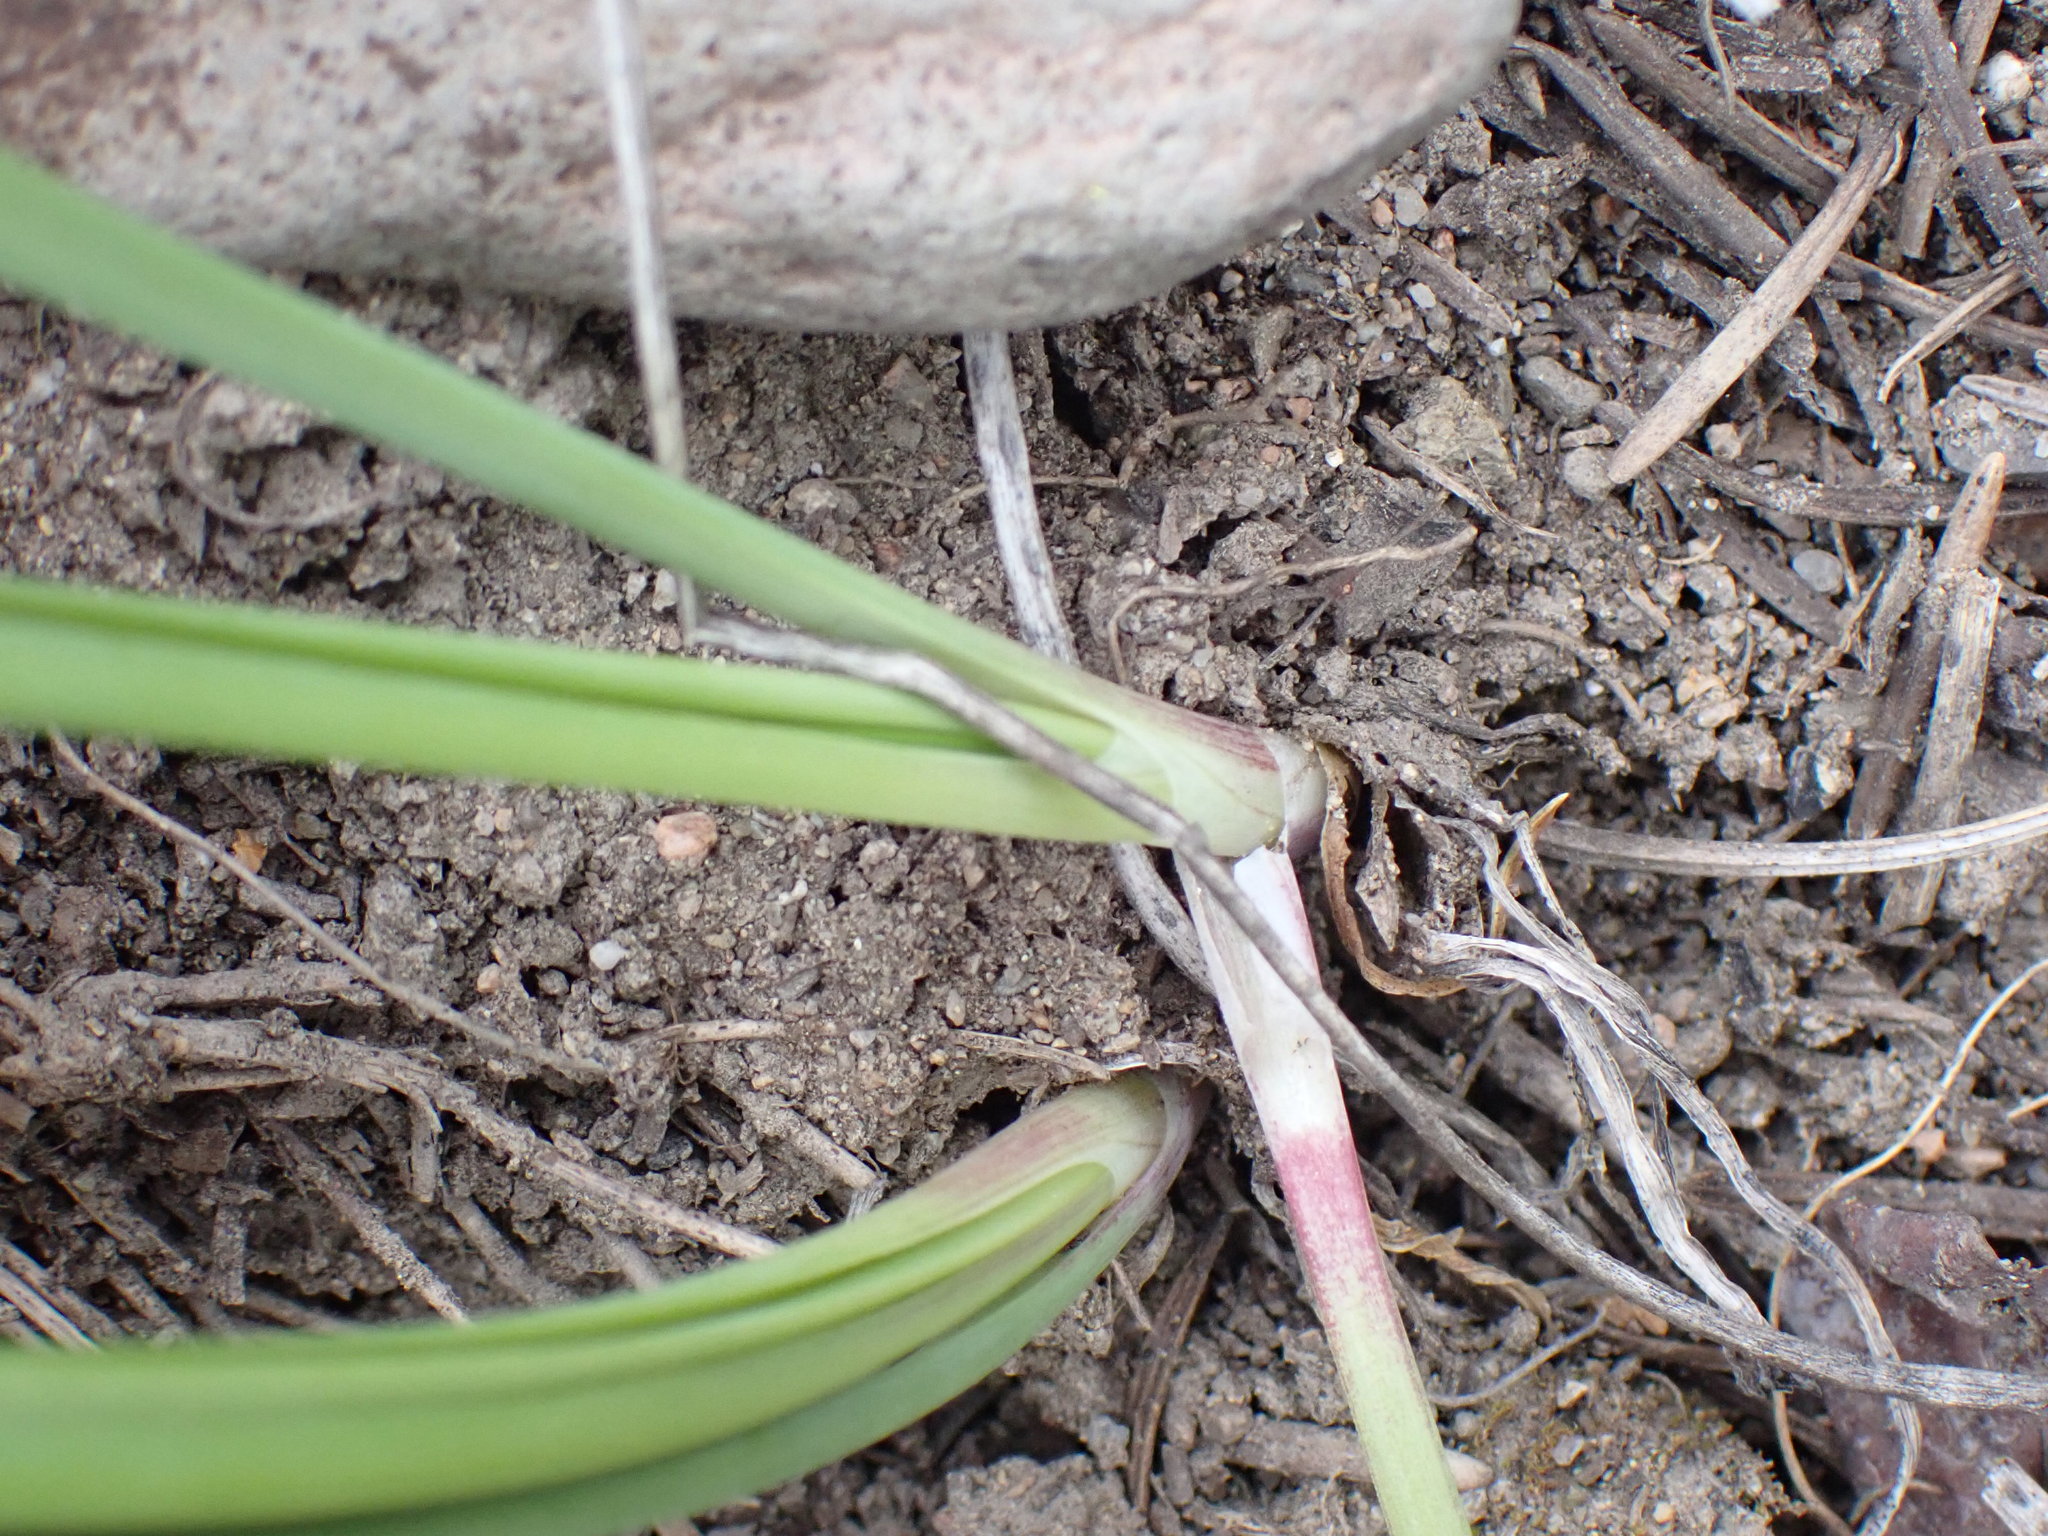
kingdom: Plantae
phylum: Tracheophyta
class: Liliopsida
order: Asparagales
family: Amaryllidaceae
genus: Allium
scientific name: Allium cernuum
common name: Nodding onion
